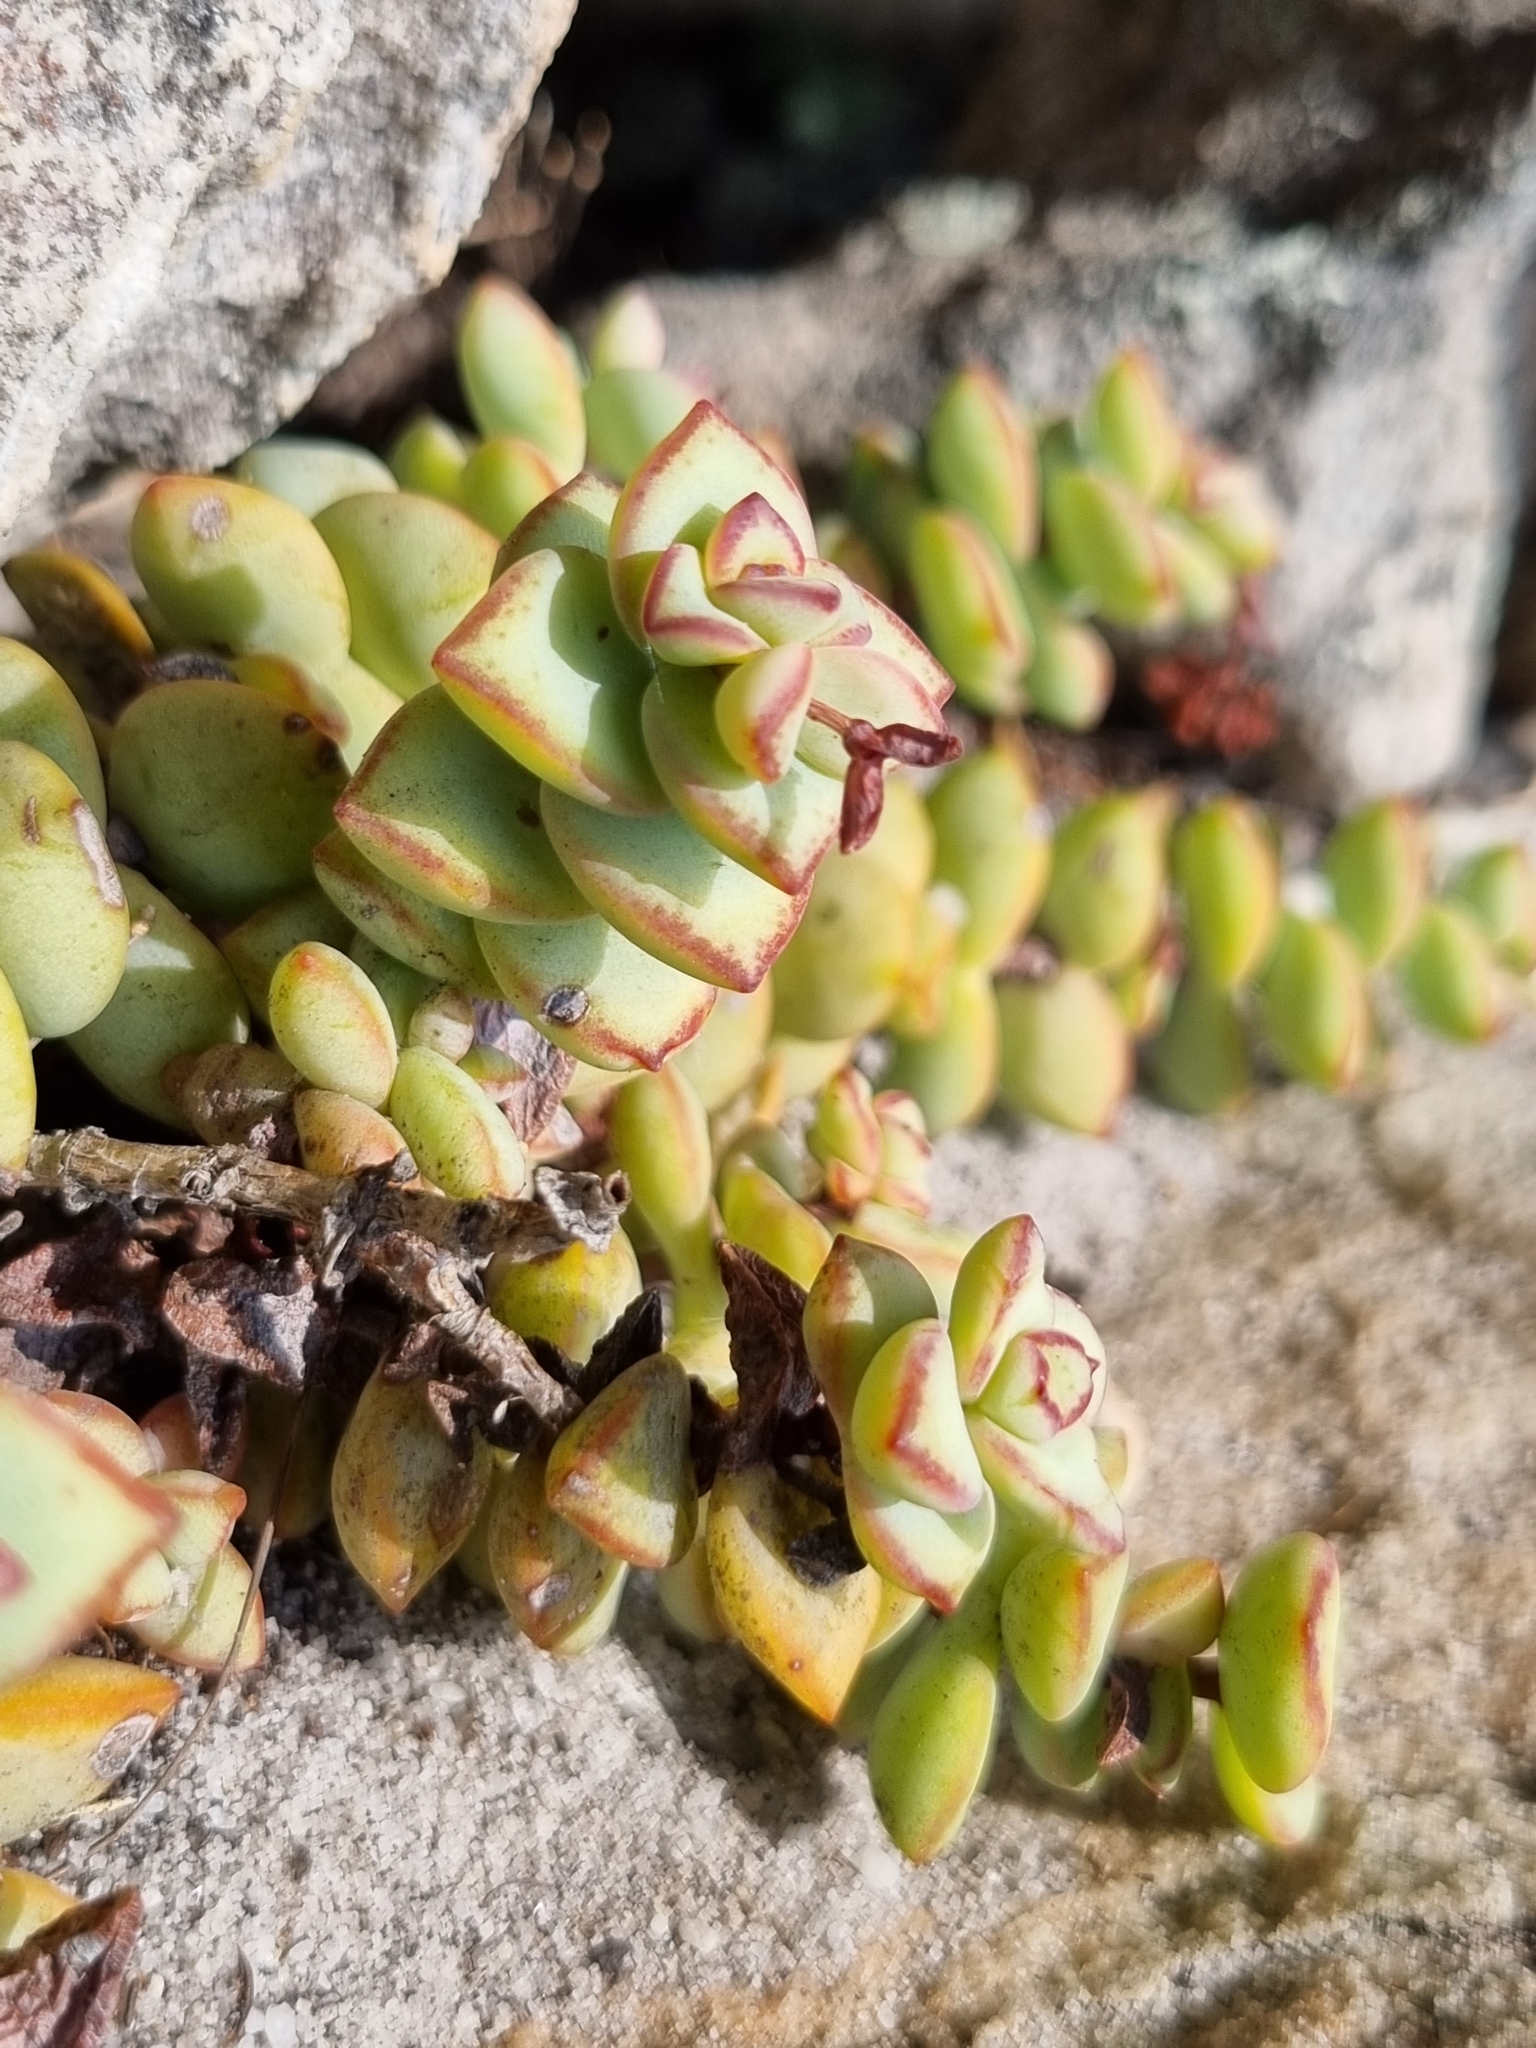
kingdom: Plantae
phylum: Tracheophyta
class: Magnoliopsida
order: Saxifragales
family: Crassulaceae
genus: Crassula
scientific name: Crassula rupestris
